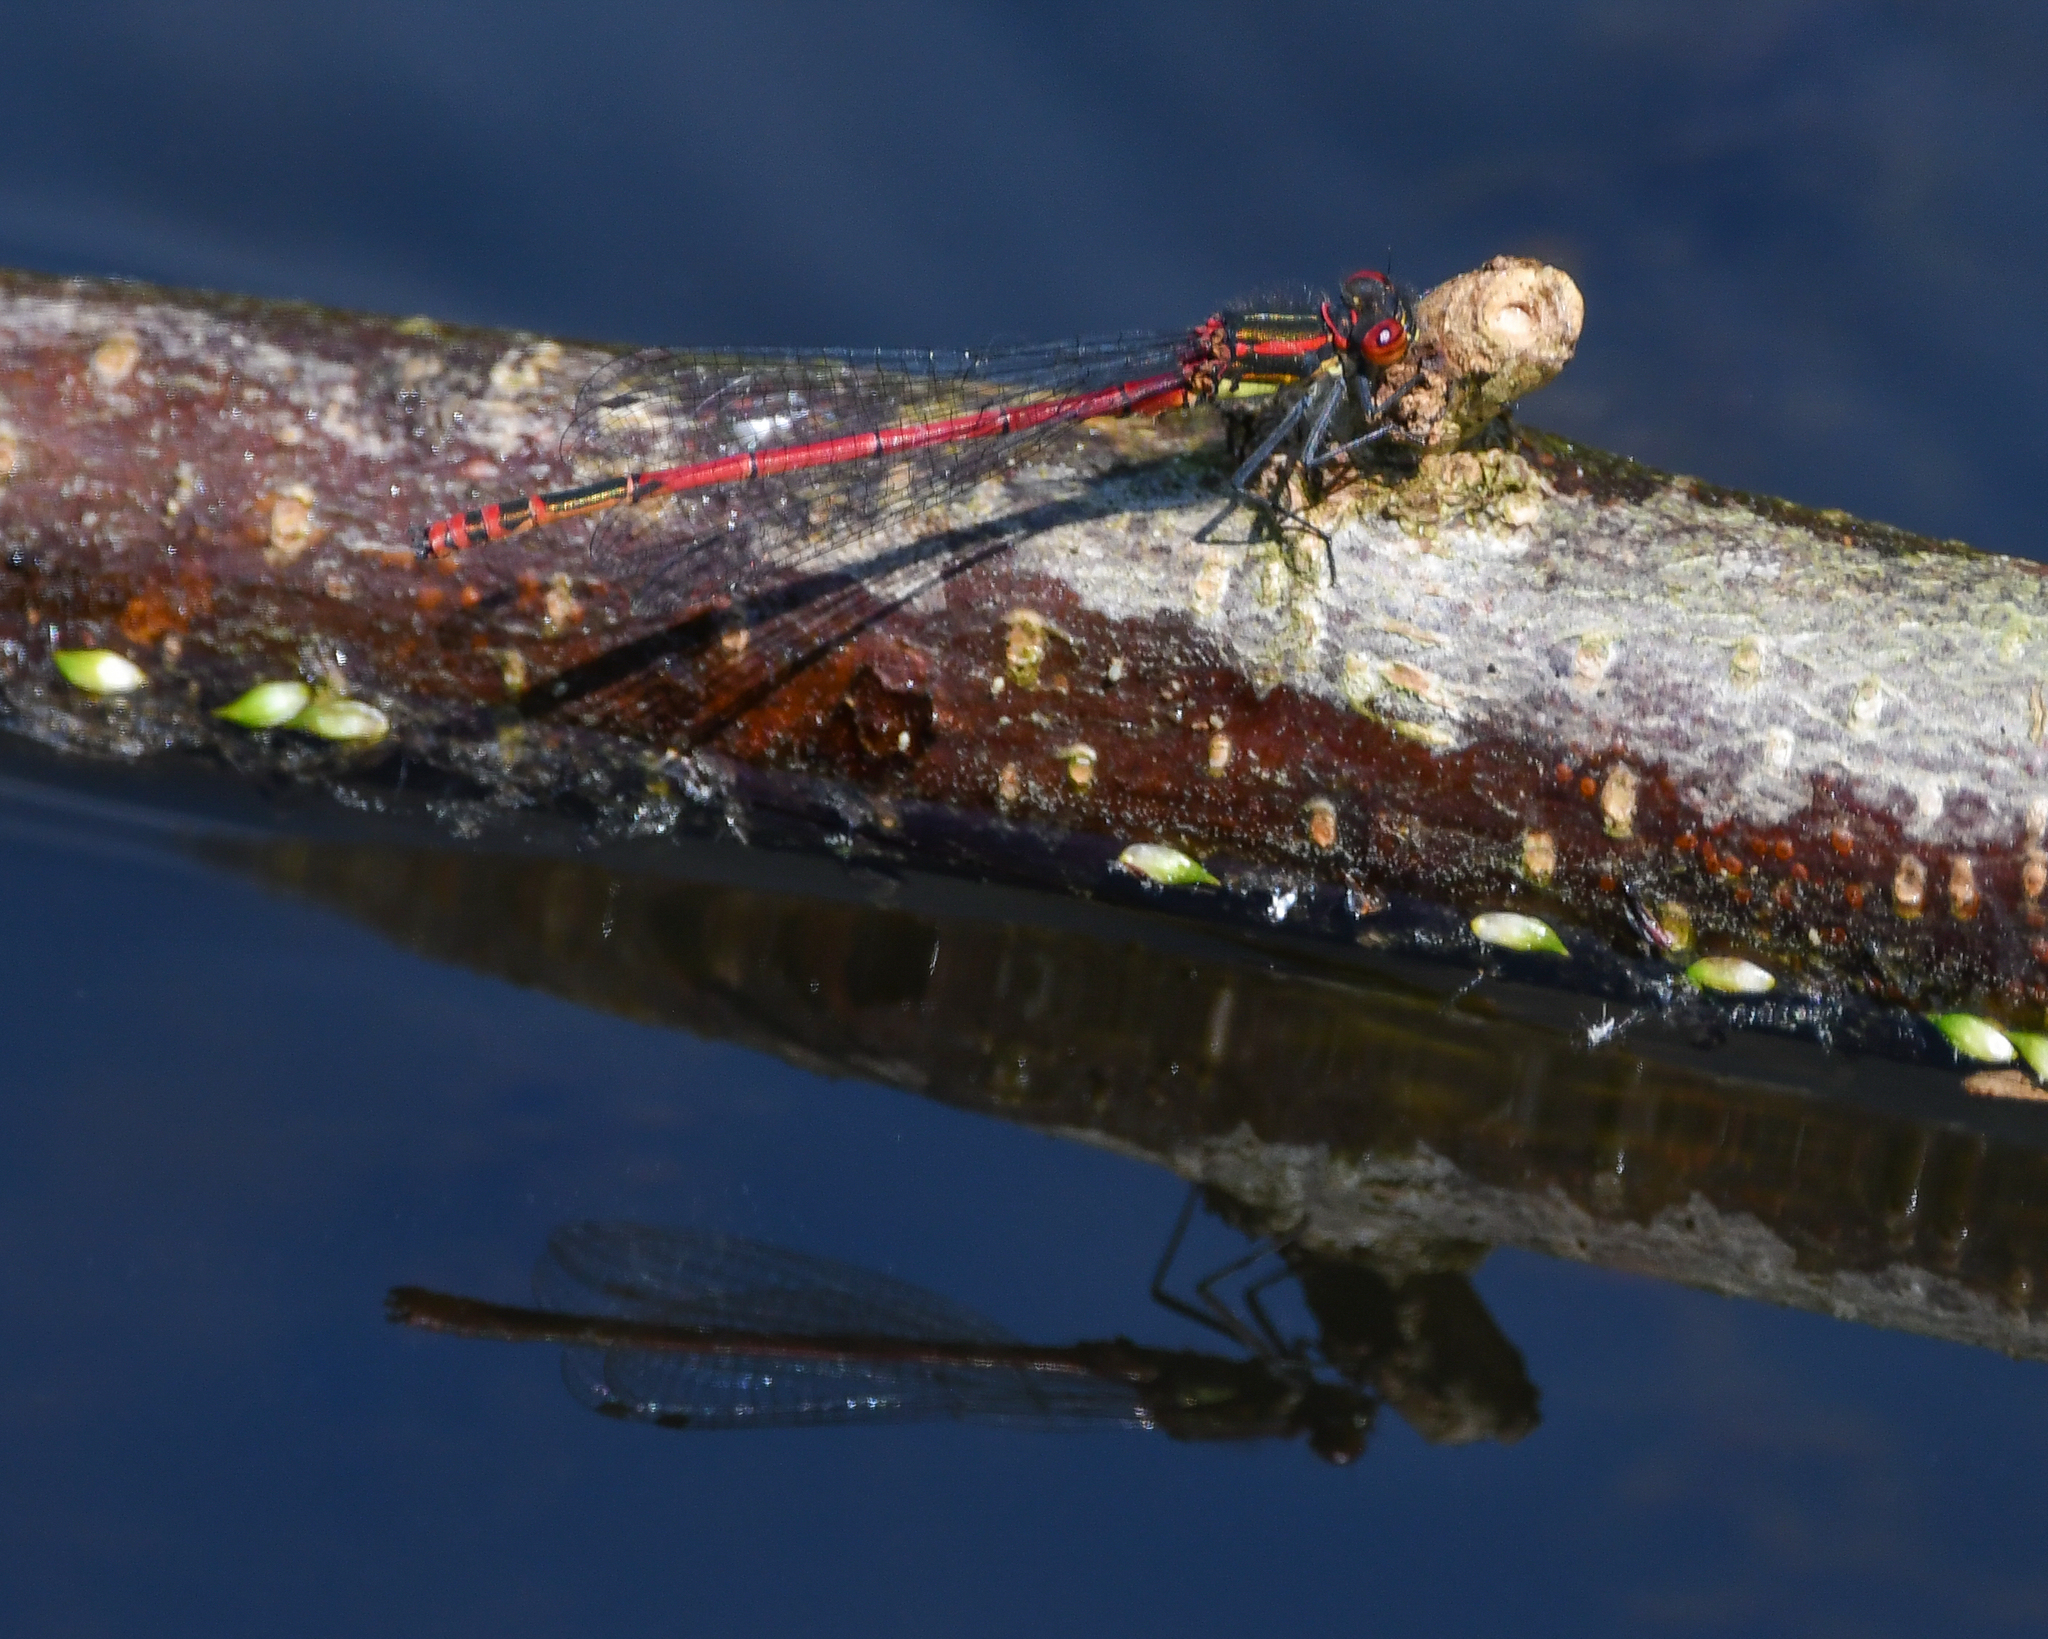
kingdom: Animalia
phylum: Arthropoda
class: Insecta
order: Odonata
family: Coenagrionidae
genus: Pyrrhosoma
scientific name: Pyrrhosoma nymphula
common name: Large red damsel
